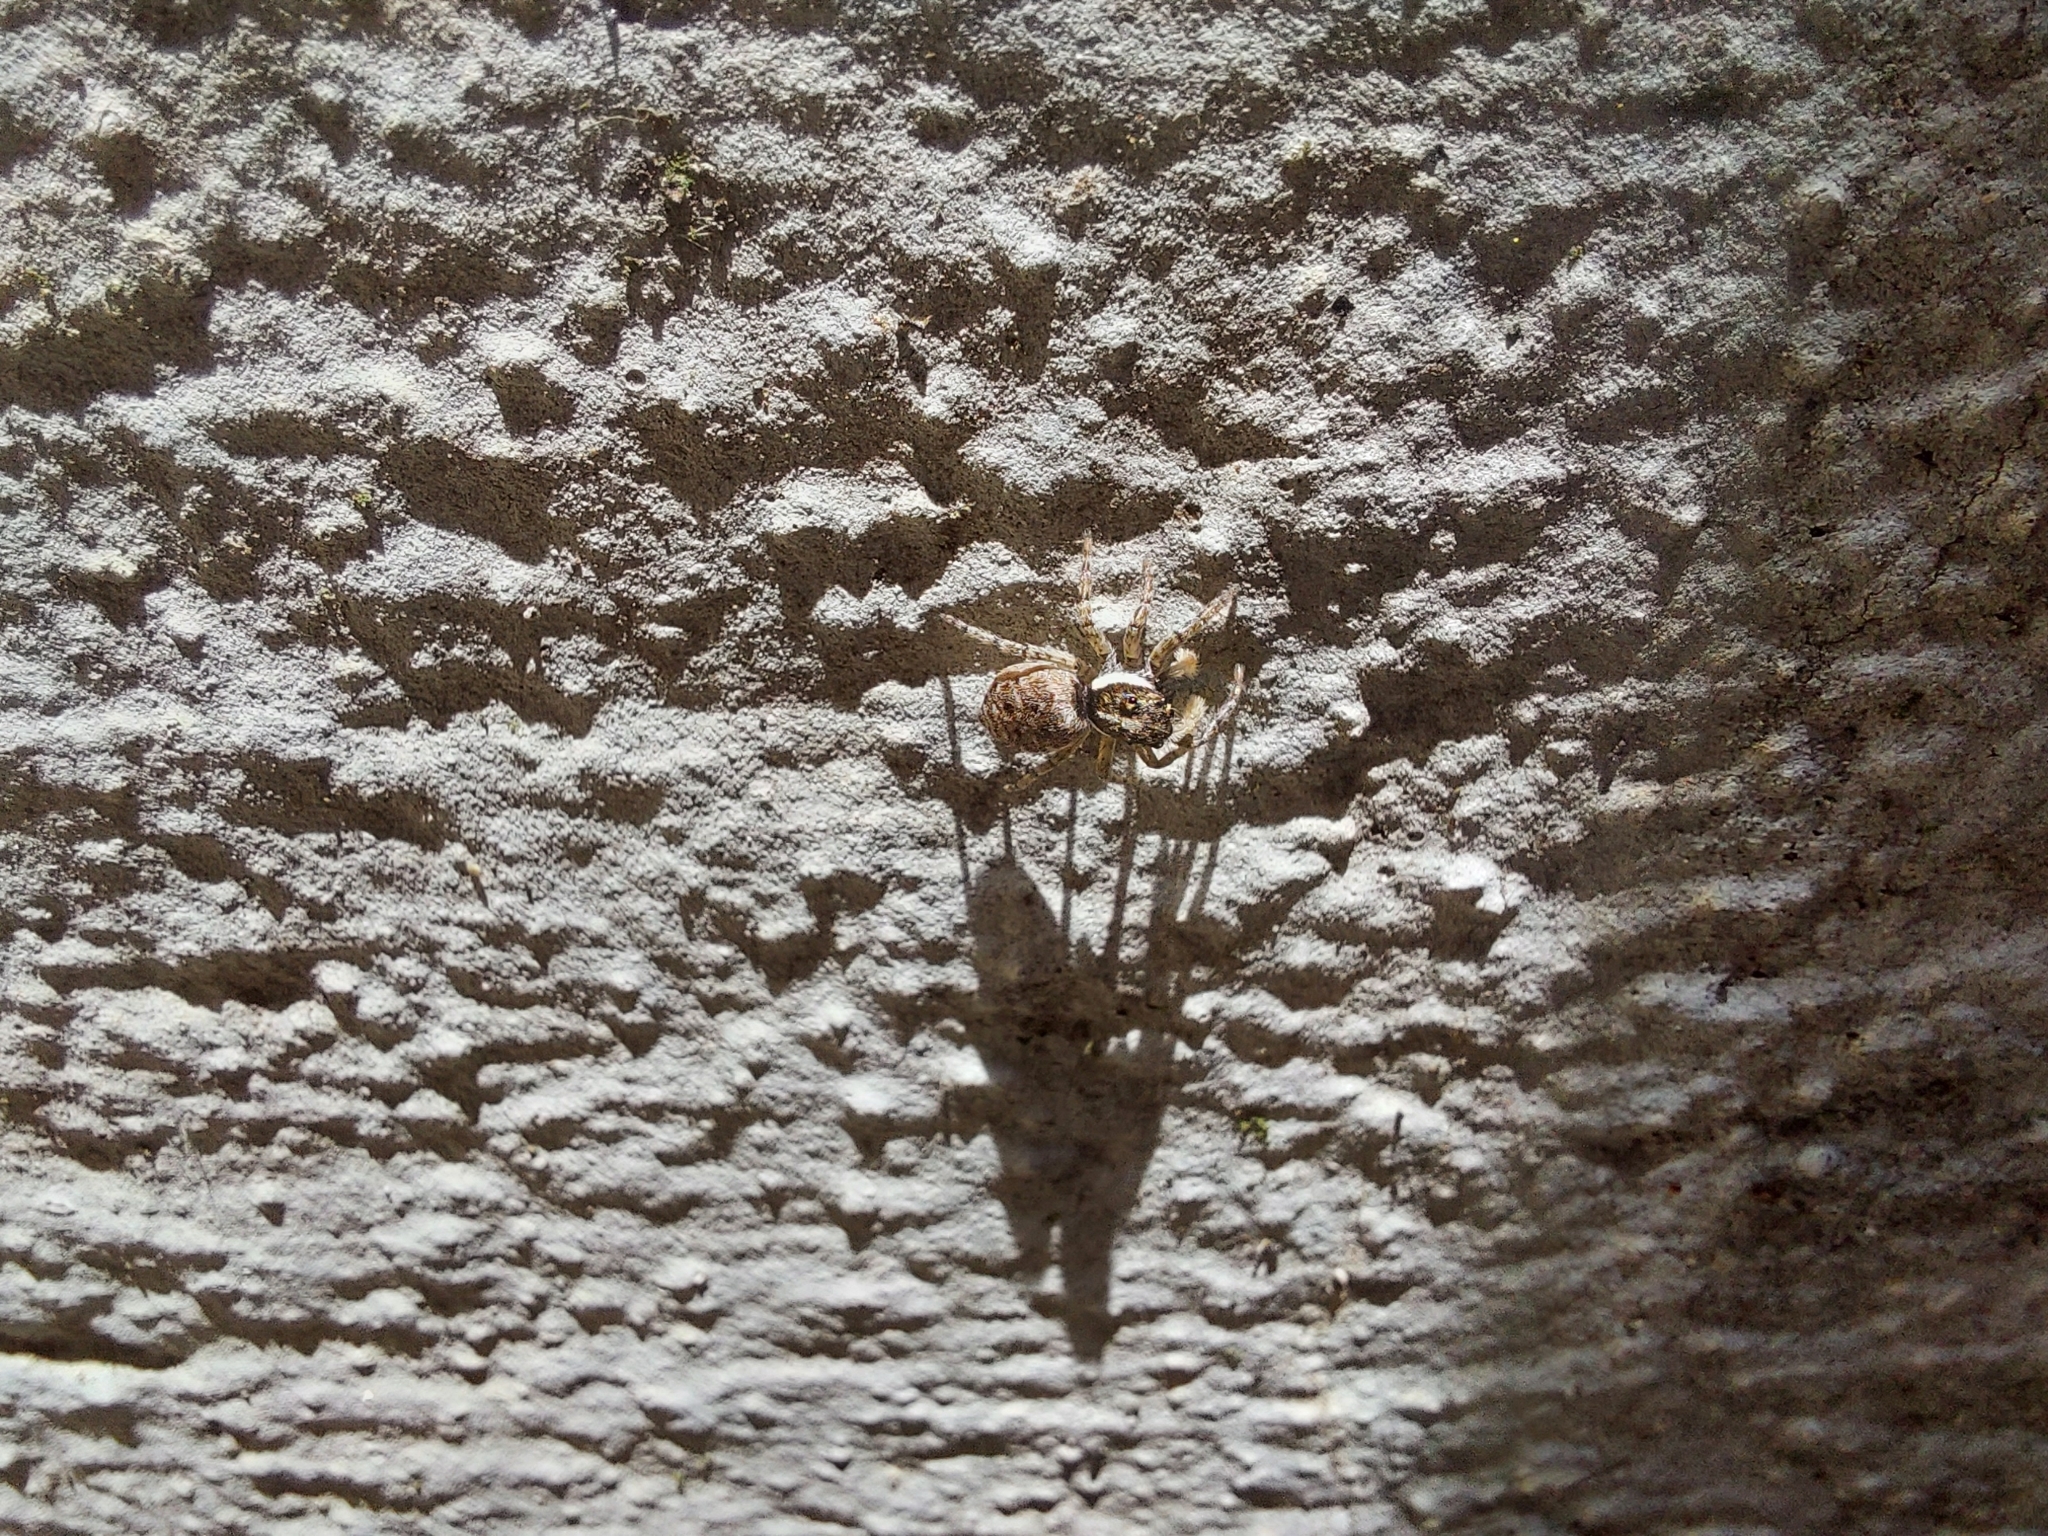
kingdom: Animalia
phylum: Arthropoda
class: Arachnida
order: Araneae
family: Salticidae
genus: Menemerus
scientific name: Menemerus semilimbatus
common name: Jumping spider
